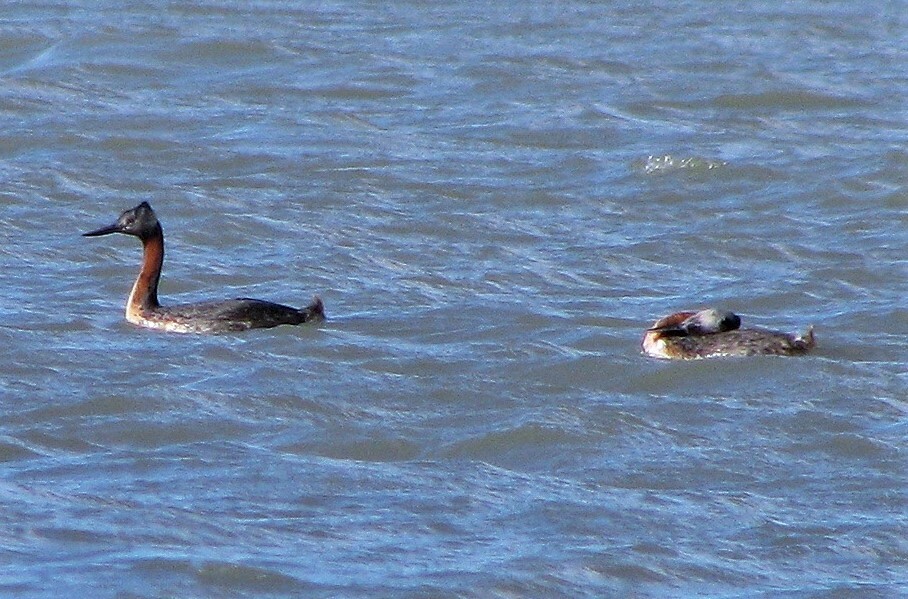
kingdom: Animalia
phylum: Chordata
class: Aves
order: Podicipediformes
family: Podicipedidae
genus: Podiceps
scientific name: Podiceps major
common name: Great grebe
